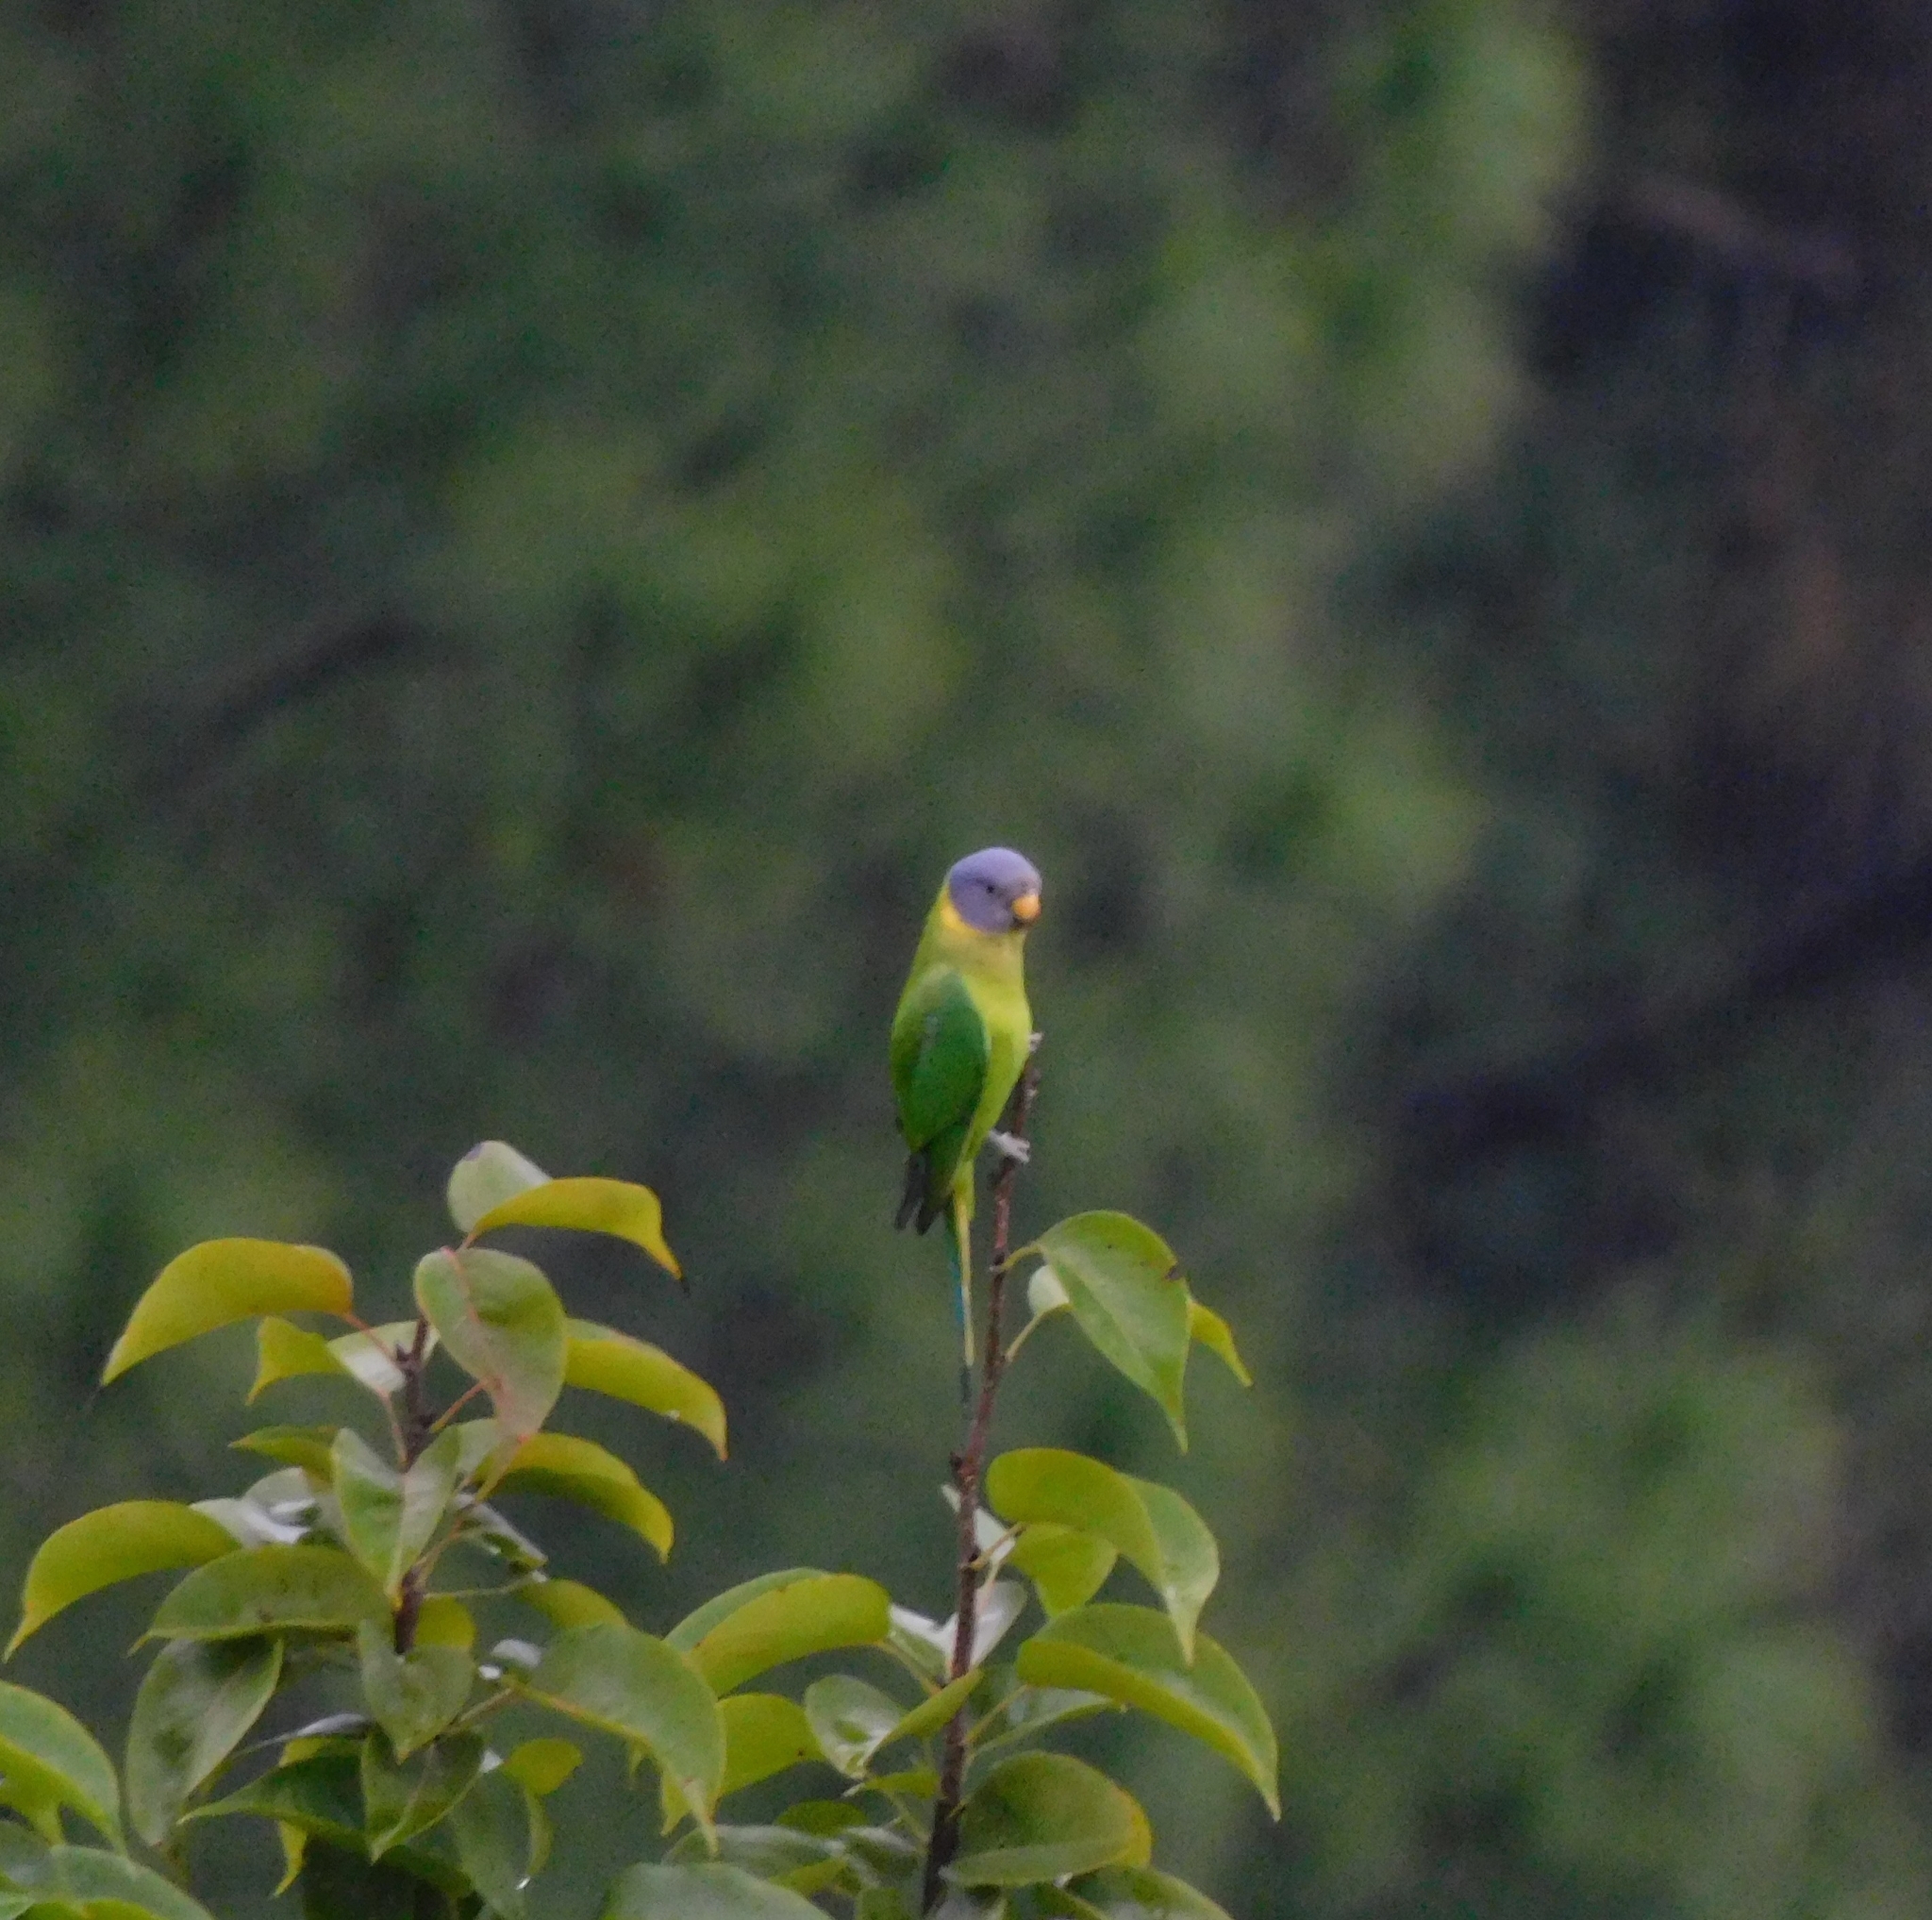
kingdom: Animalia
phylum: Chordata
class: Aves
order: Psittaciformes
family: Psittacidae
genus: Psittacula
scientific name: Psittacula cyanocephala
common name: Plum-headed parakeet
